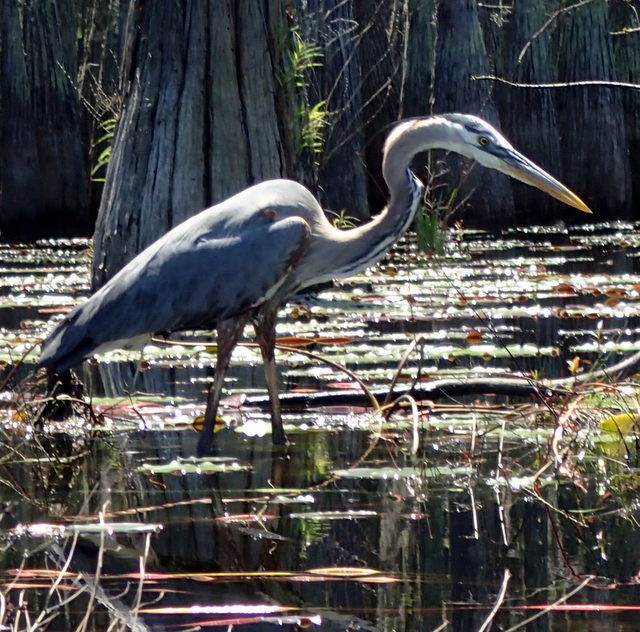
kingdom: Animalia
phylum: Chordata
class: Aves
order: Pelecaniformes
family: Ardeidae
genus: Ardea
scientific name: Ardea herodias
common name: Great blue heron
